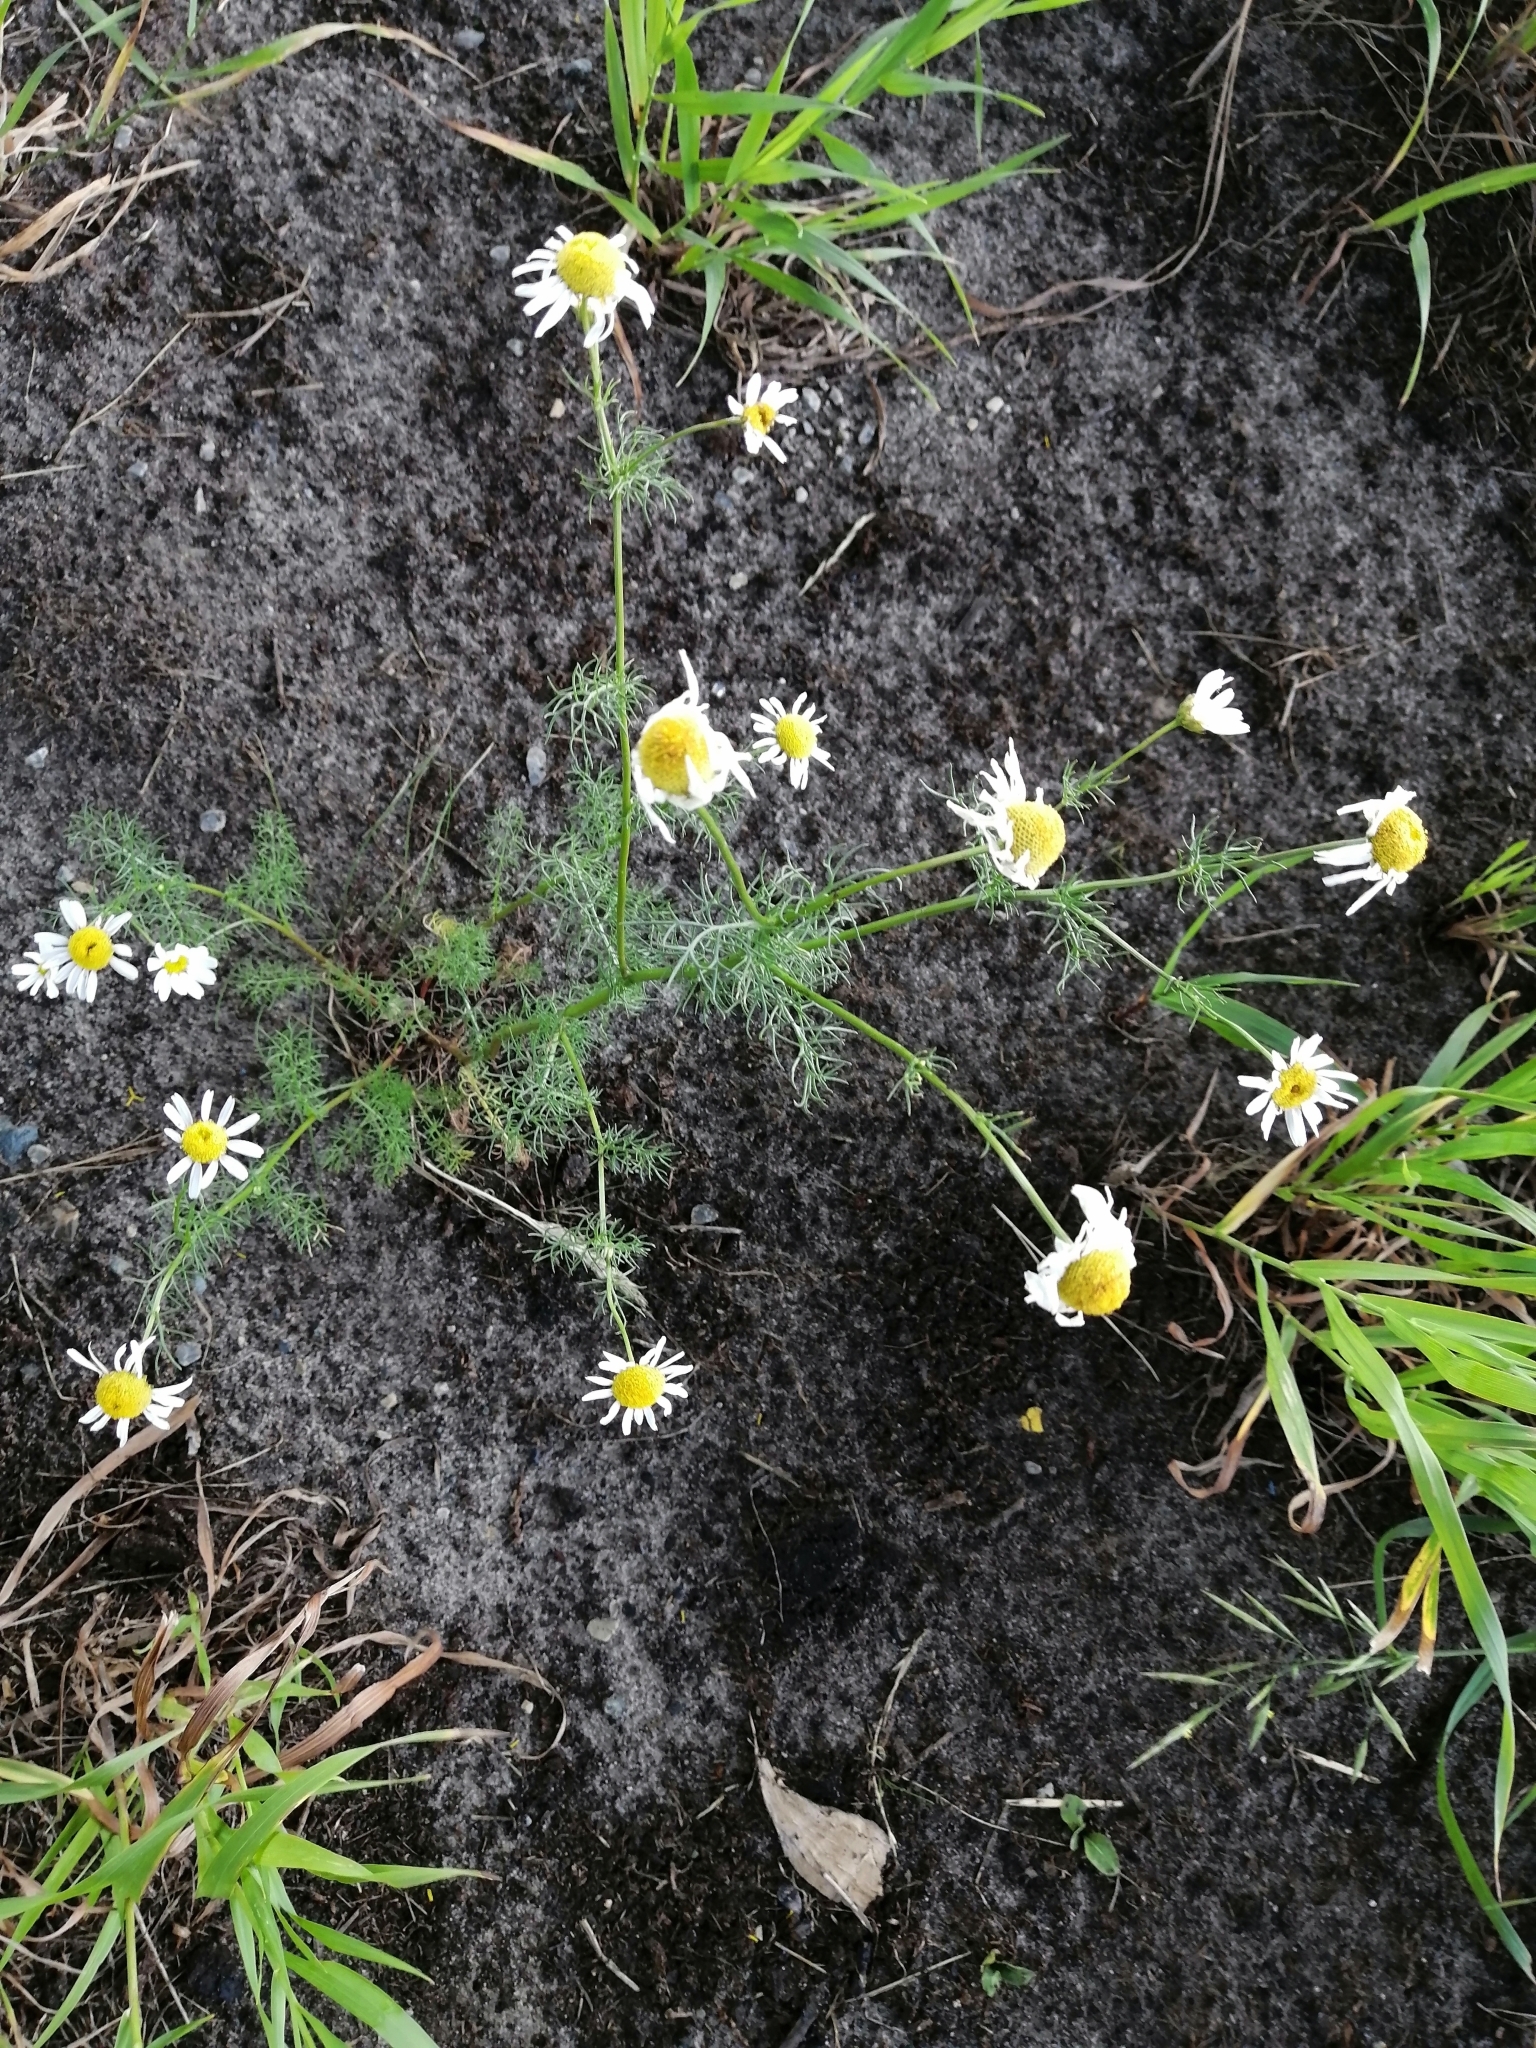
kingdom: Plantae
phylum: Tracheophyta
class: Magnoliopsida
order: Asterales
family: Asteraceae
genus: Tripleurospermum
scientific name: Tripleurospermum inodorum
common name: Scentless mayweed
